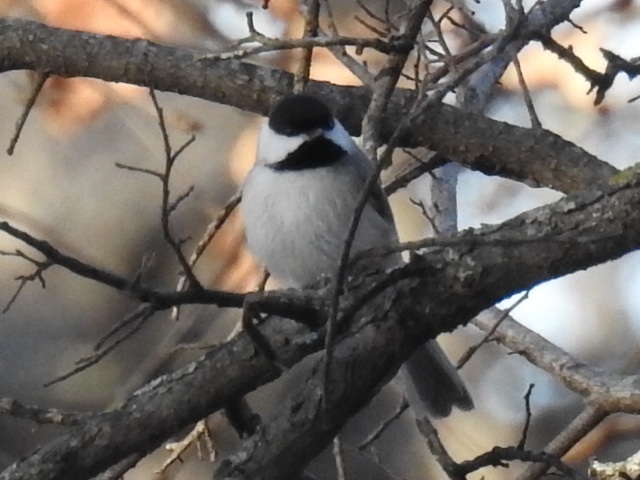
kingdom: Animalia
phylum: Chordata
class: Aves
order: Passeriformes
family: Paridae
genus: Poecile
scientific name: Poecile carolinensis
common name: Carolina chickadee
